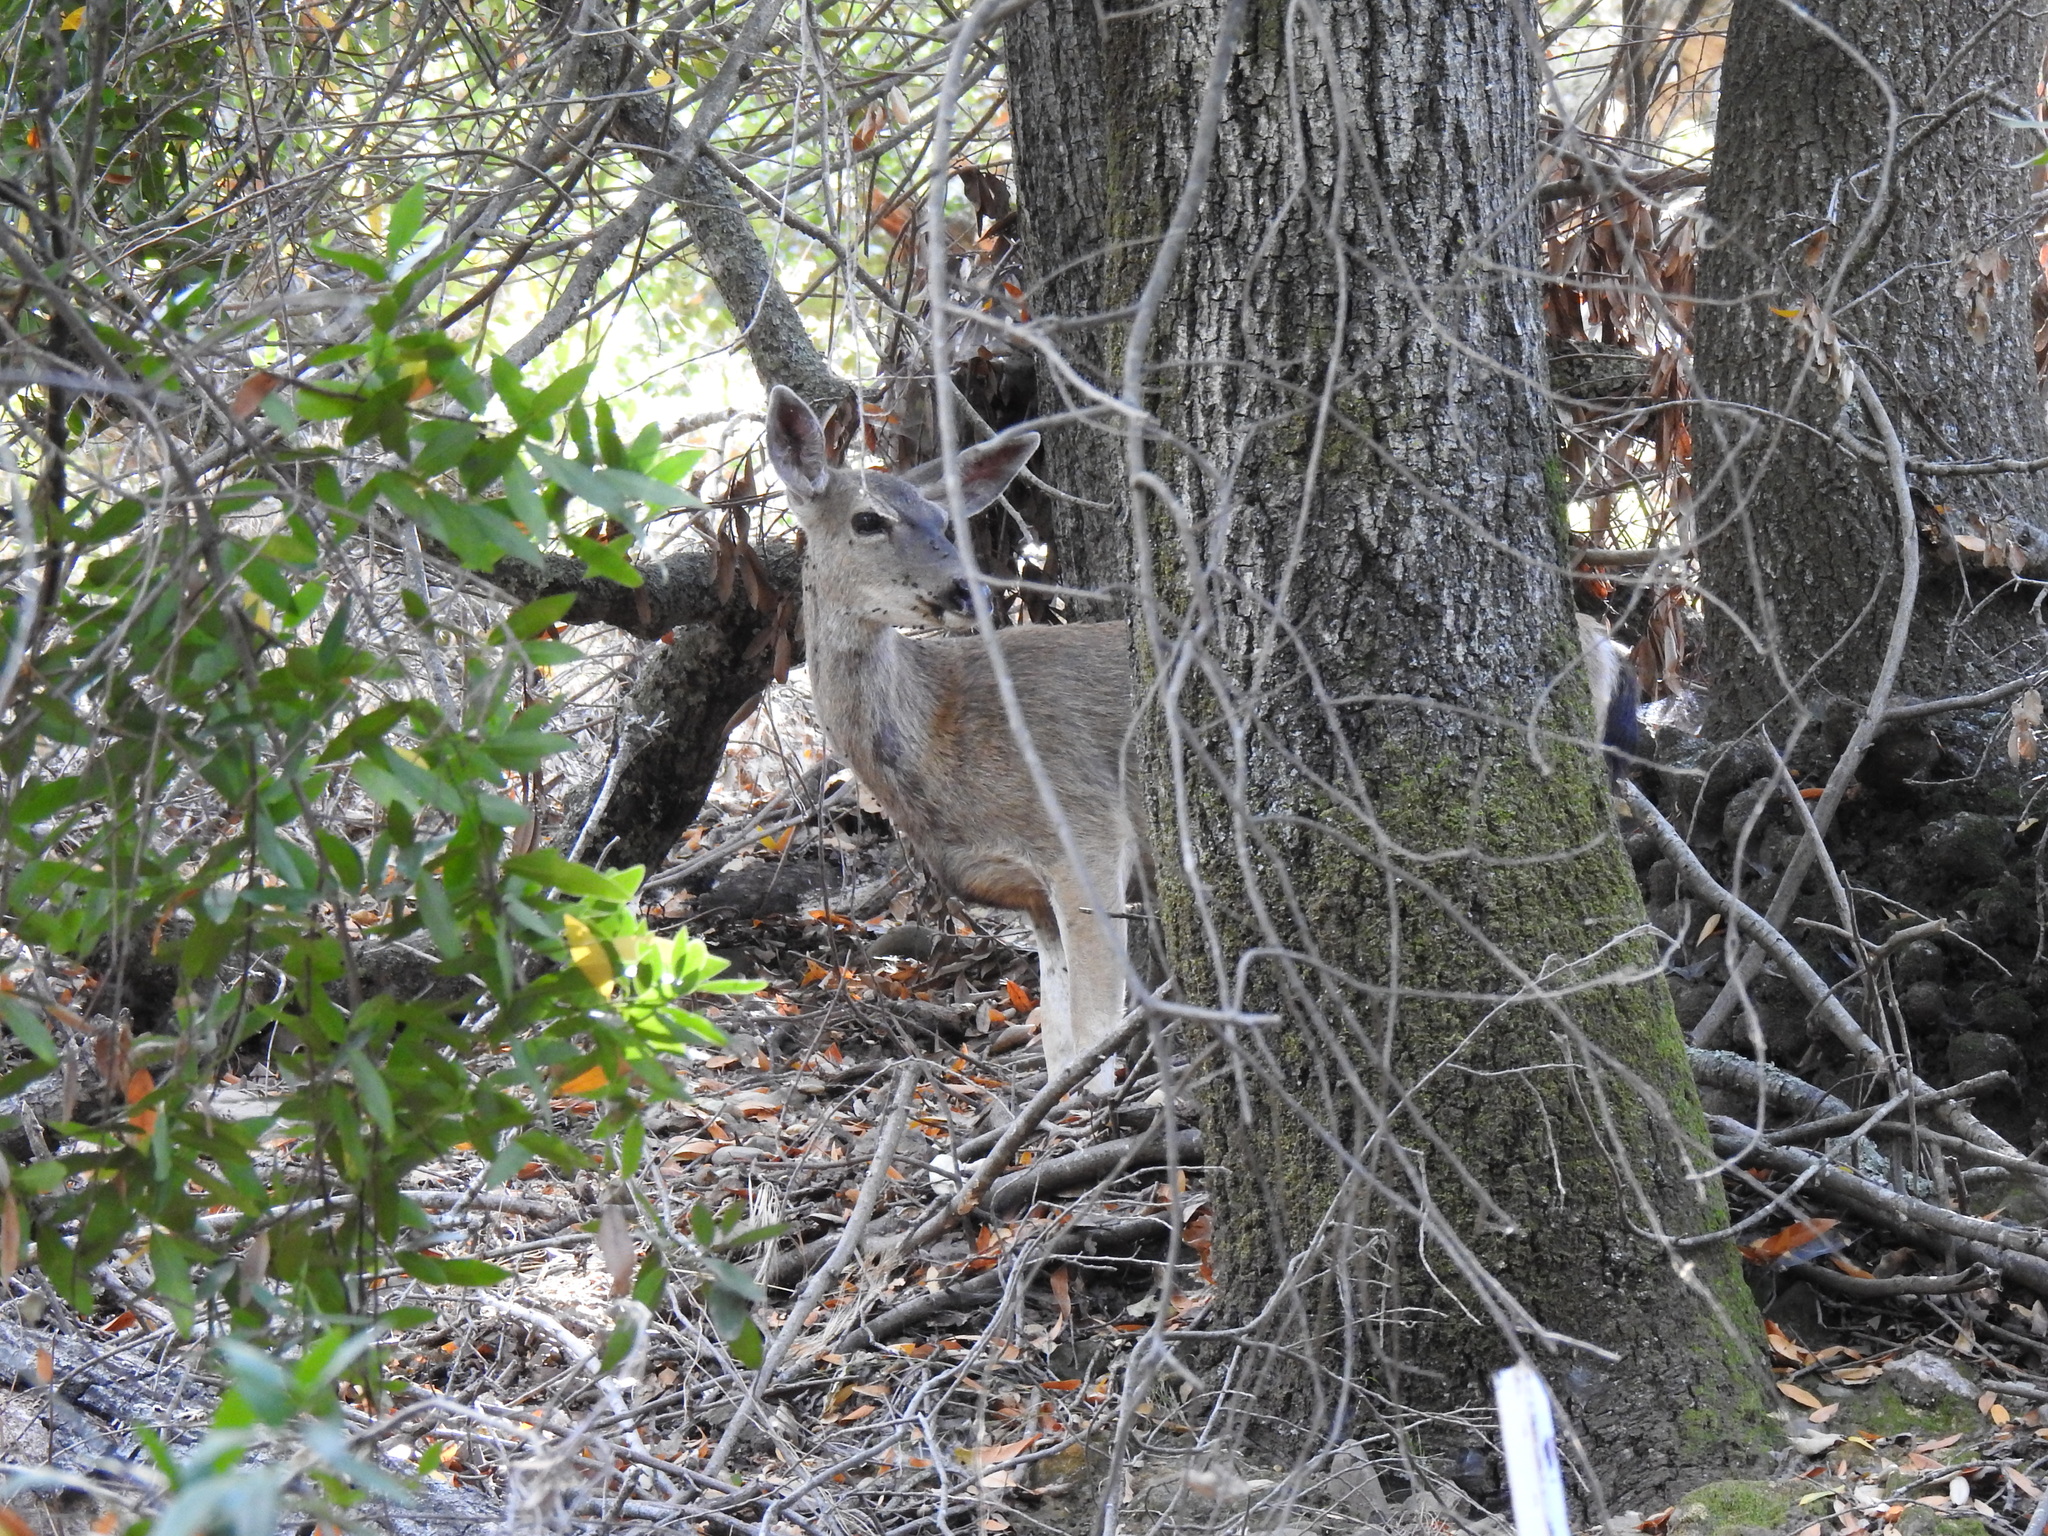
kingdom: Animalia
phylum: Chordata
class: Mammalia
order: Artiodactyla
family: Cervidae
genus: Odocoileus
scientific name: Odocoileus hemionus
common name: Mule deer
